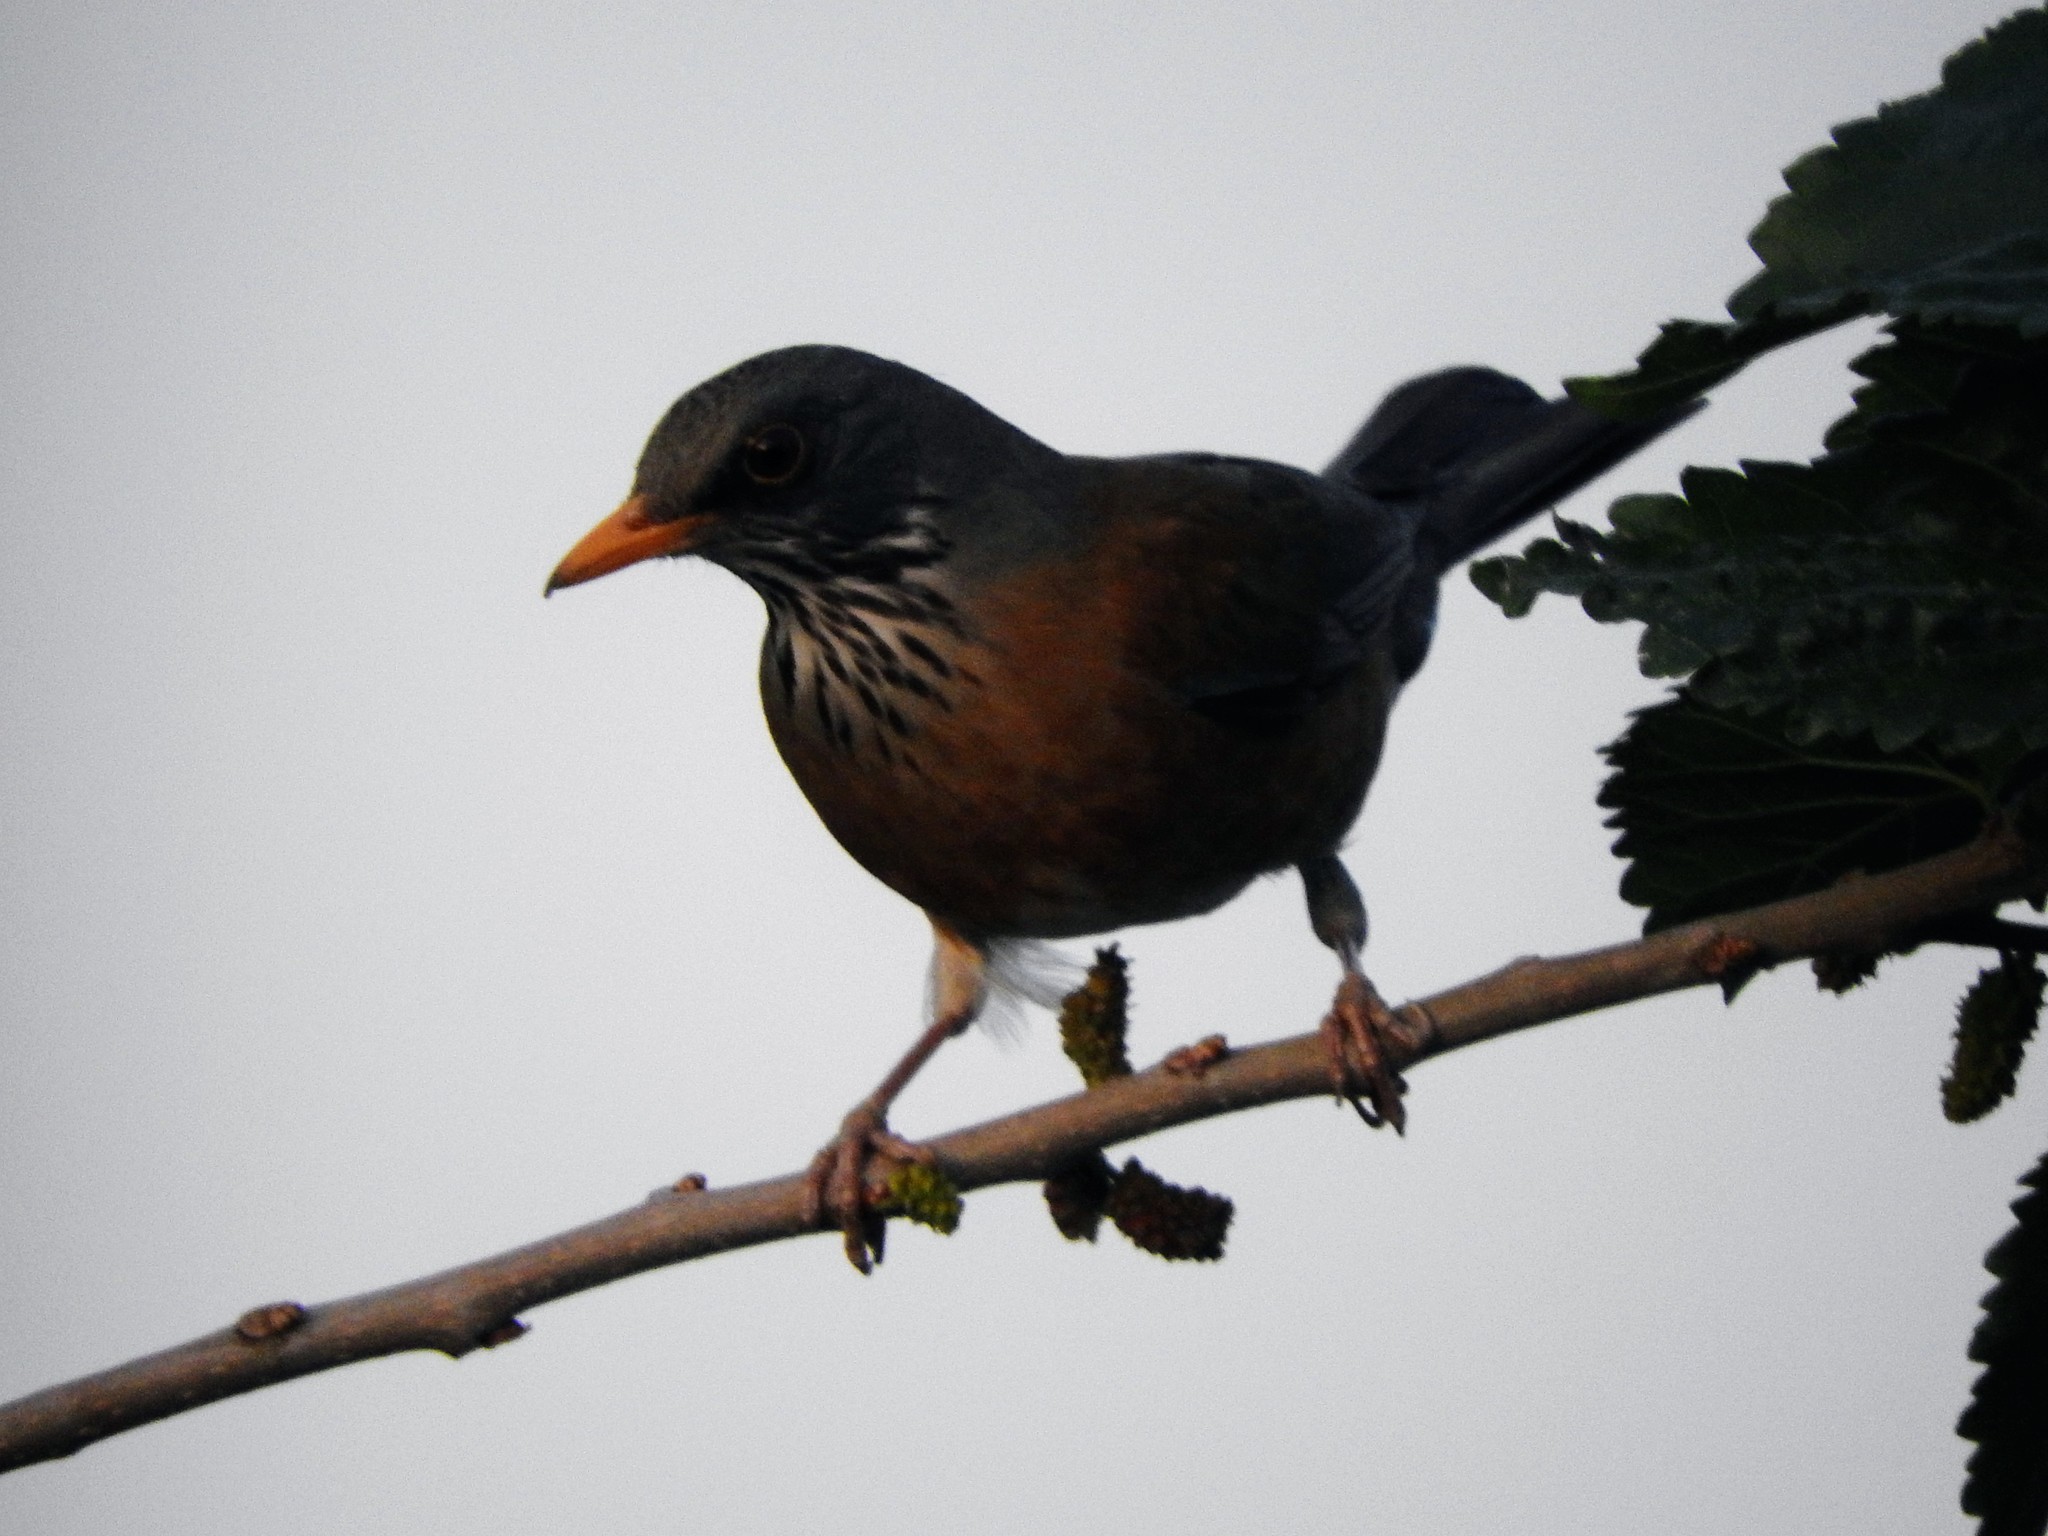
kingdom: Animalia
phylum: Chordata
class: Aves
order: Passeriformes
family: Turdidae
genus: Turdus
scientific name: Turdus rufopalliatus
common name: Rufous-backed robin
